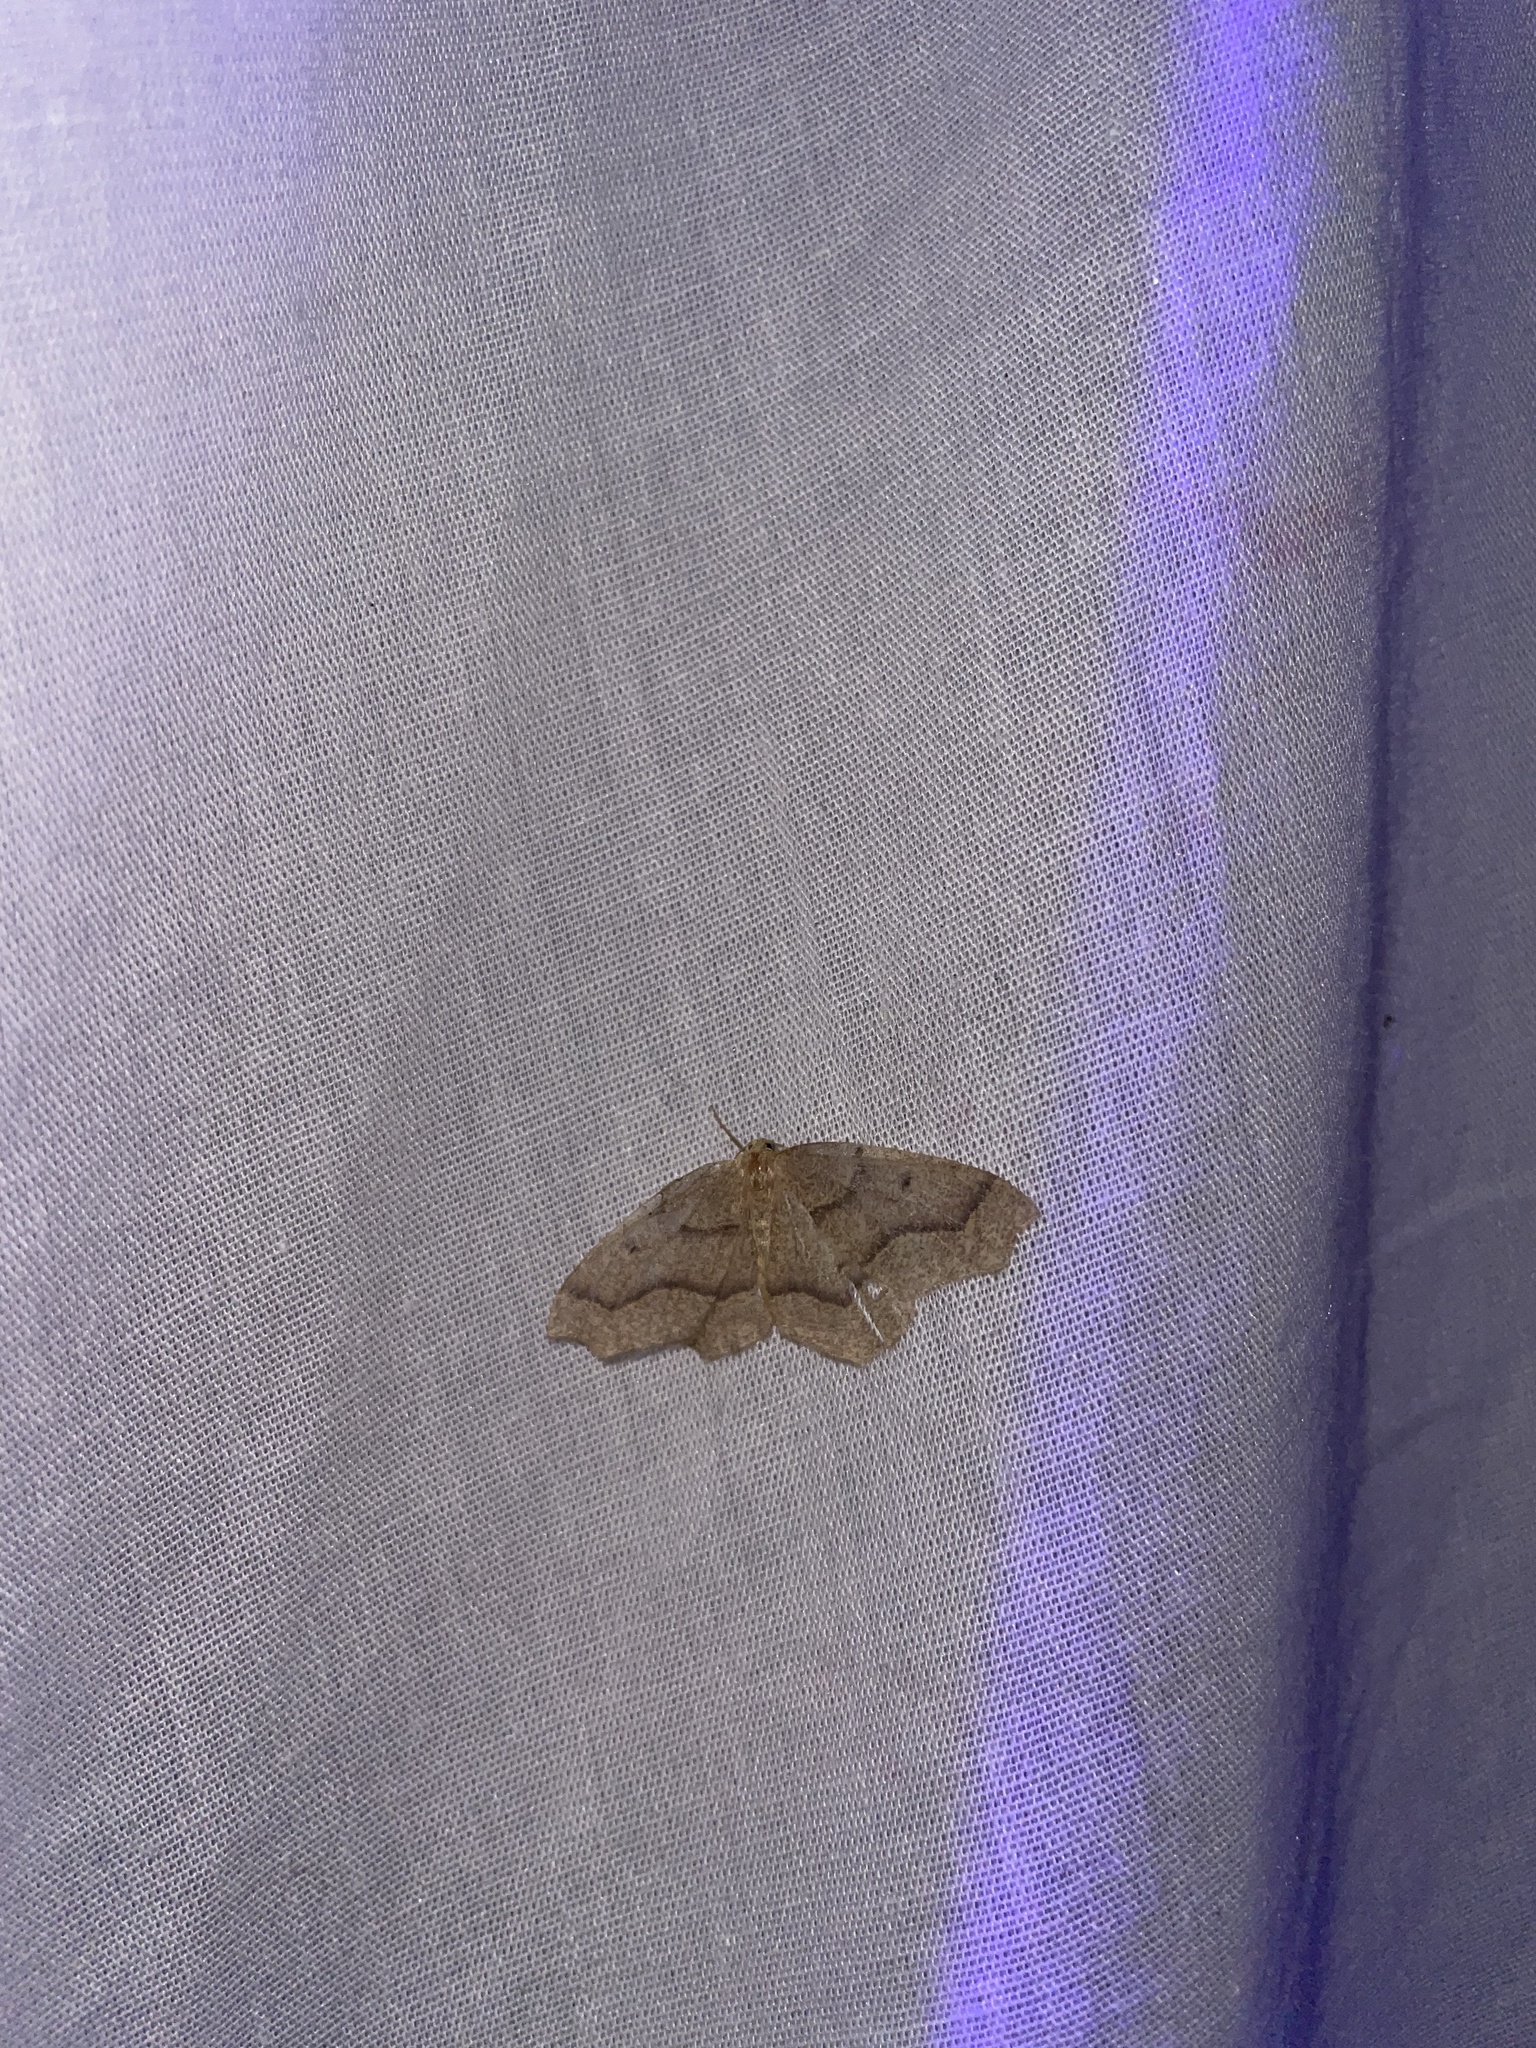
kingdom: Animalia
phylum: Arthropoda
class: Insecta
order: Lepidoptera
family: Geometridae
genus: Lambdina
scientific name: Lambdina fiscellaria
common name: Hemlock looper
